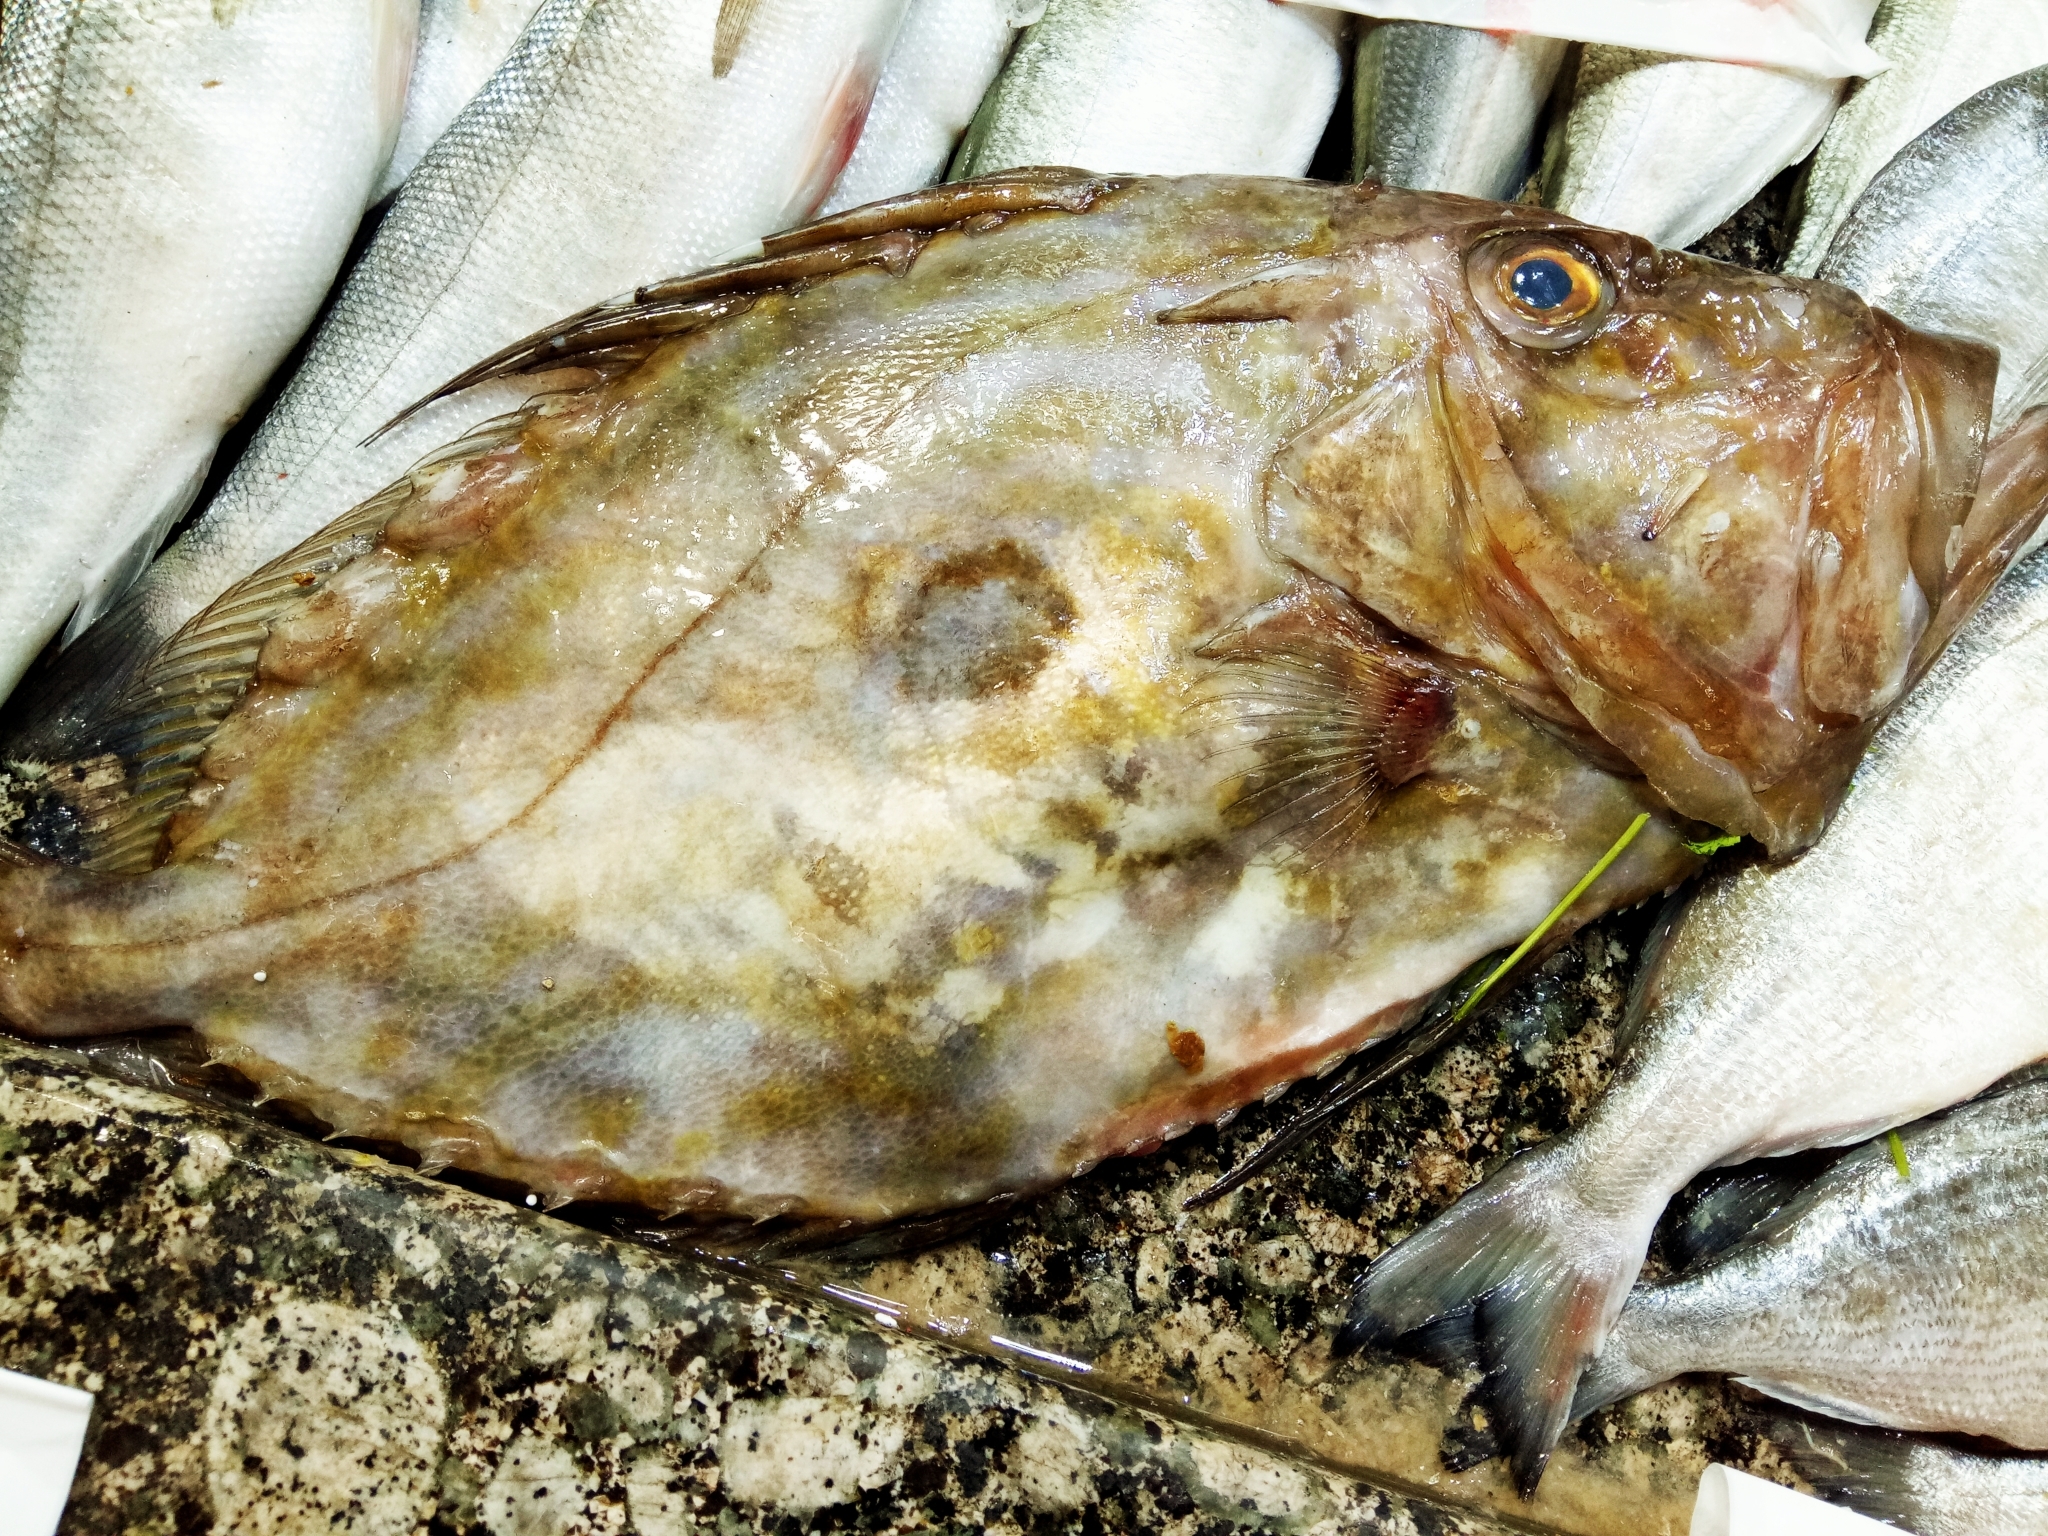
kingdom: Animalia
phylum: Chordata
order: Zeiformes
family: Zeidae
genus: Zeus
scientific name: Zeus faber
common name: John dory
